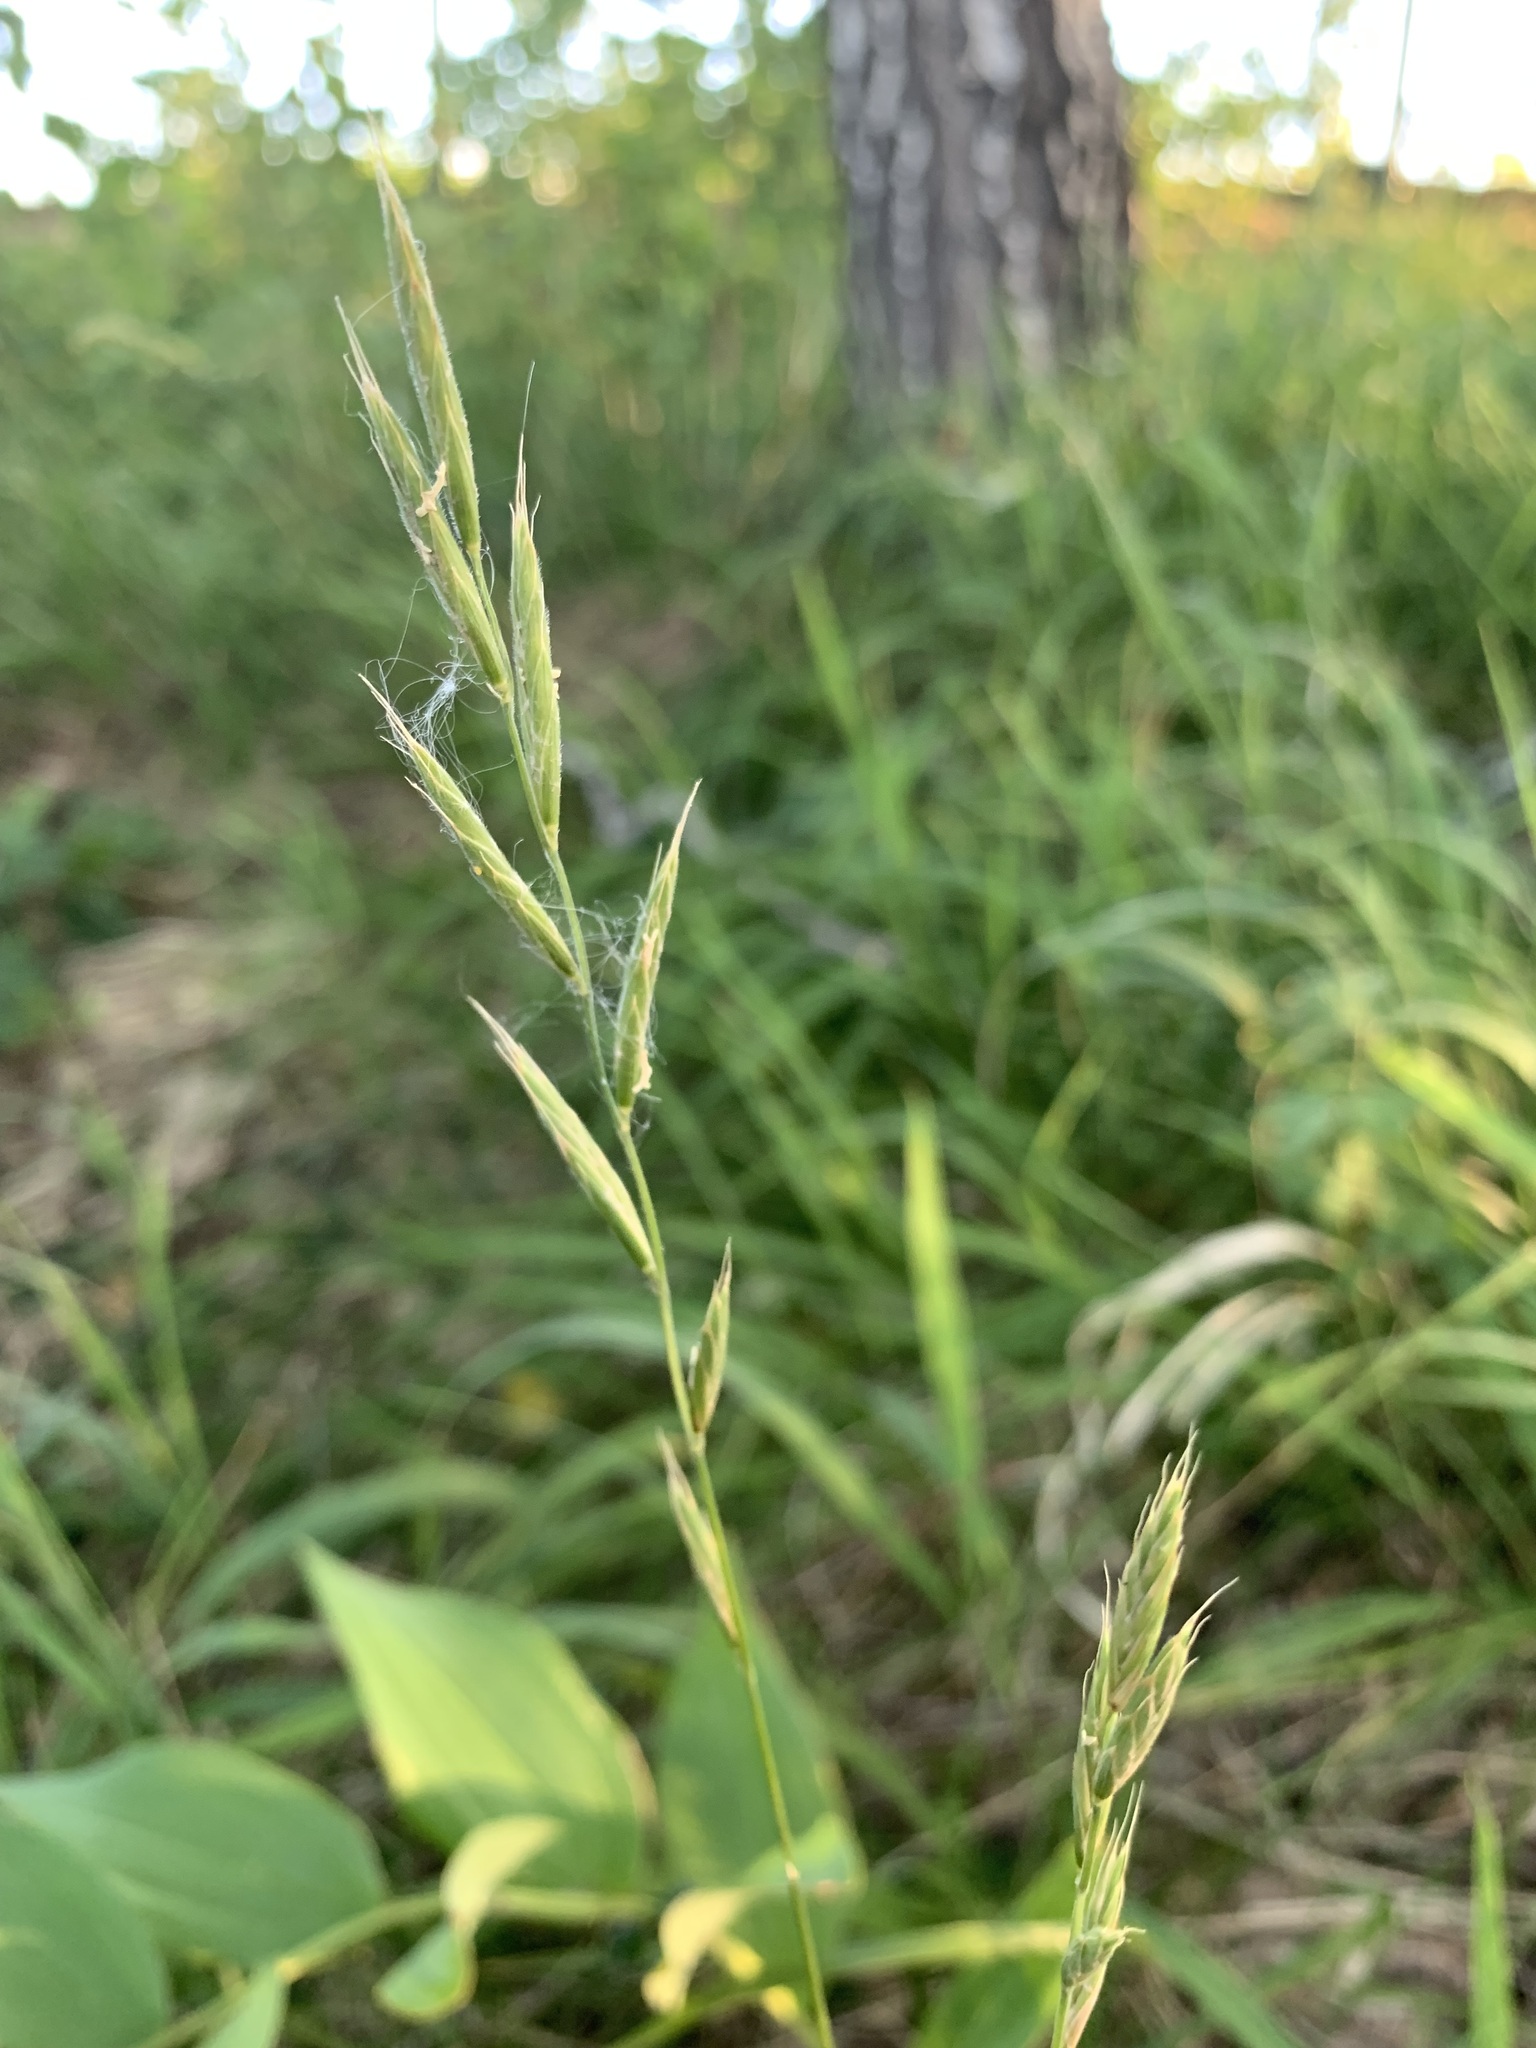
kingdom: Plantae
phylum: Tracheophyta
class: Liliopsida
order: Poales
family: Poaceae
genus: Brachypodium
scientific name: Brachypodium pinnatum
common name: Tor grass
